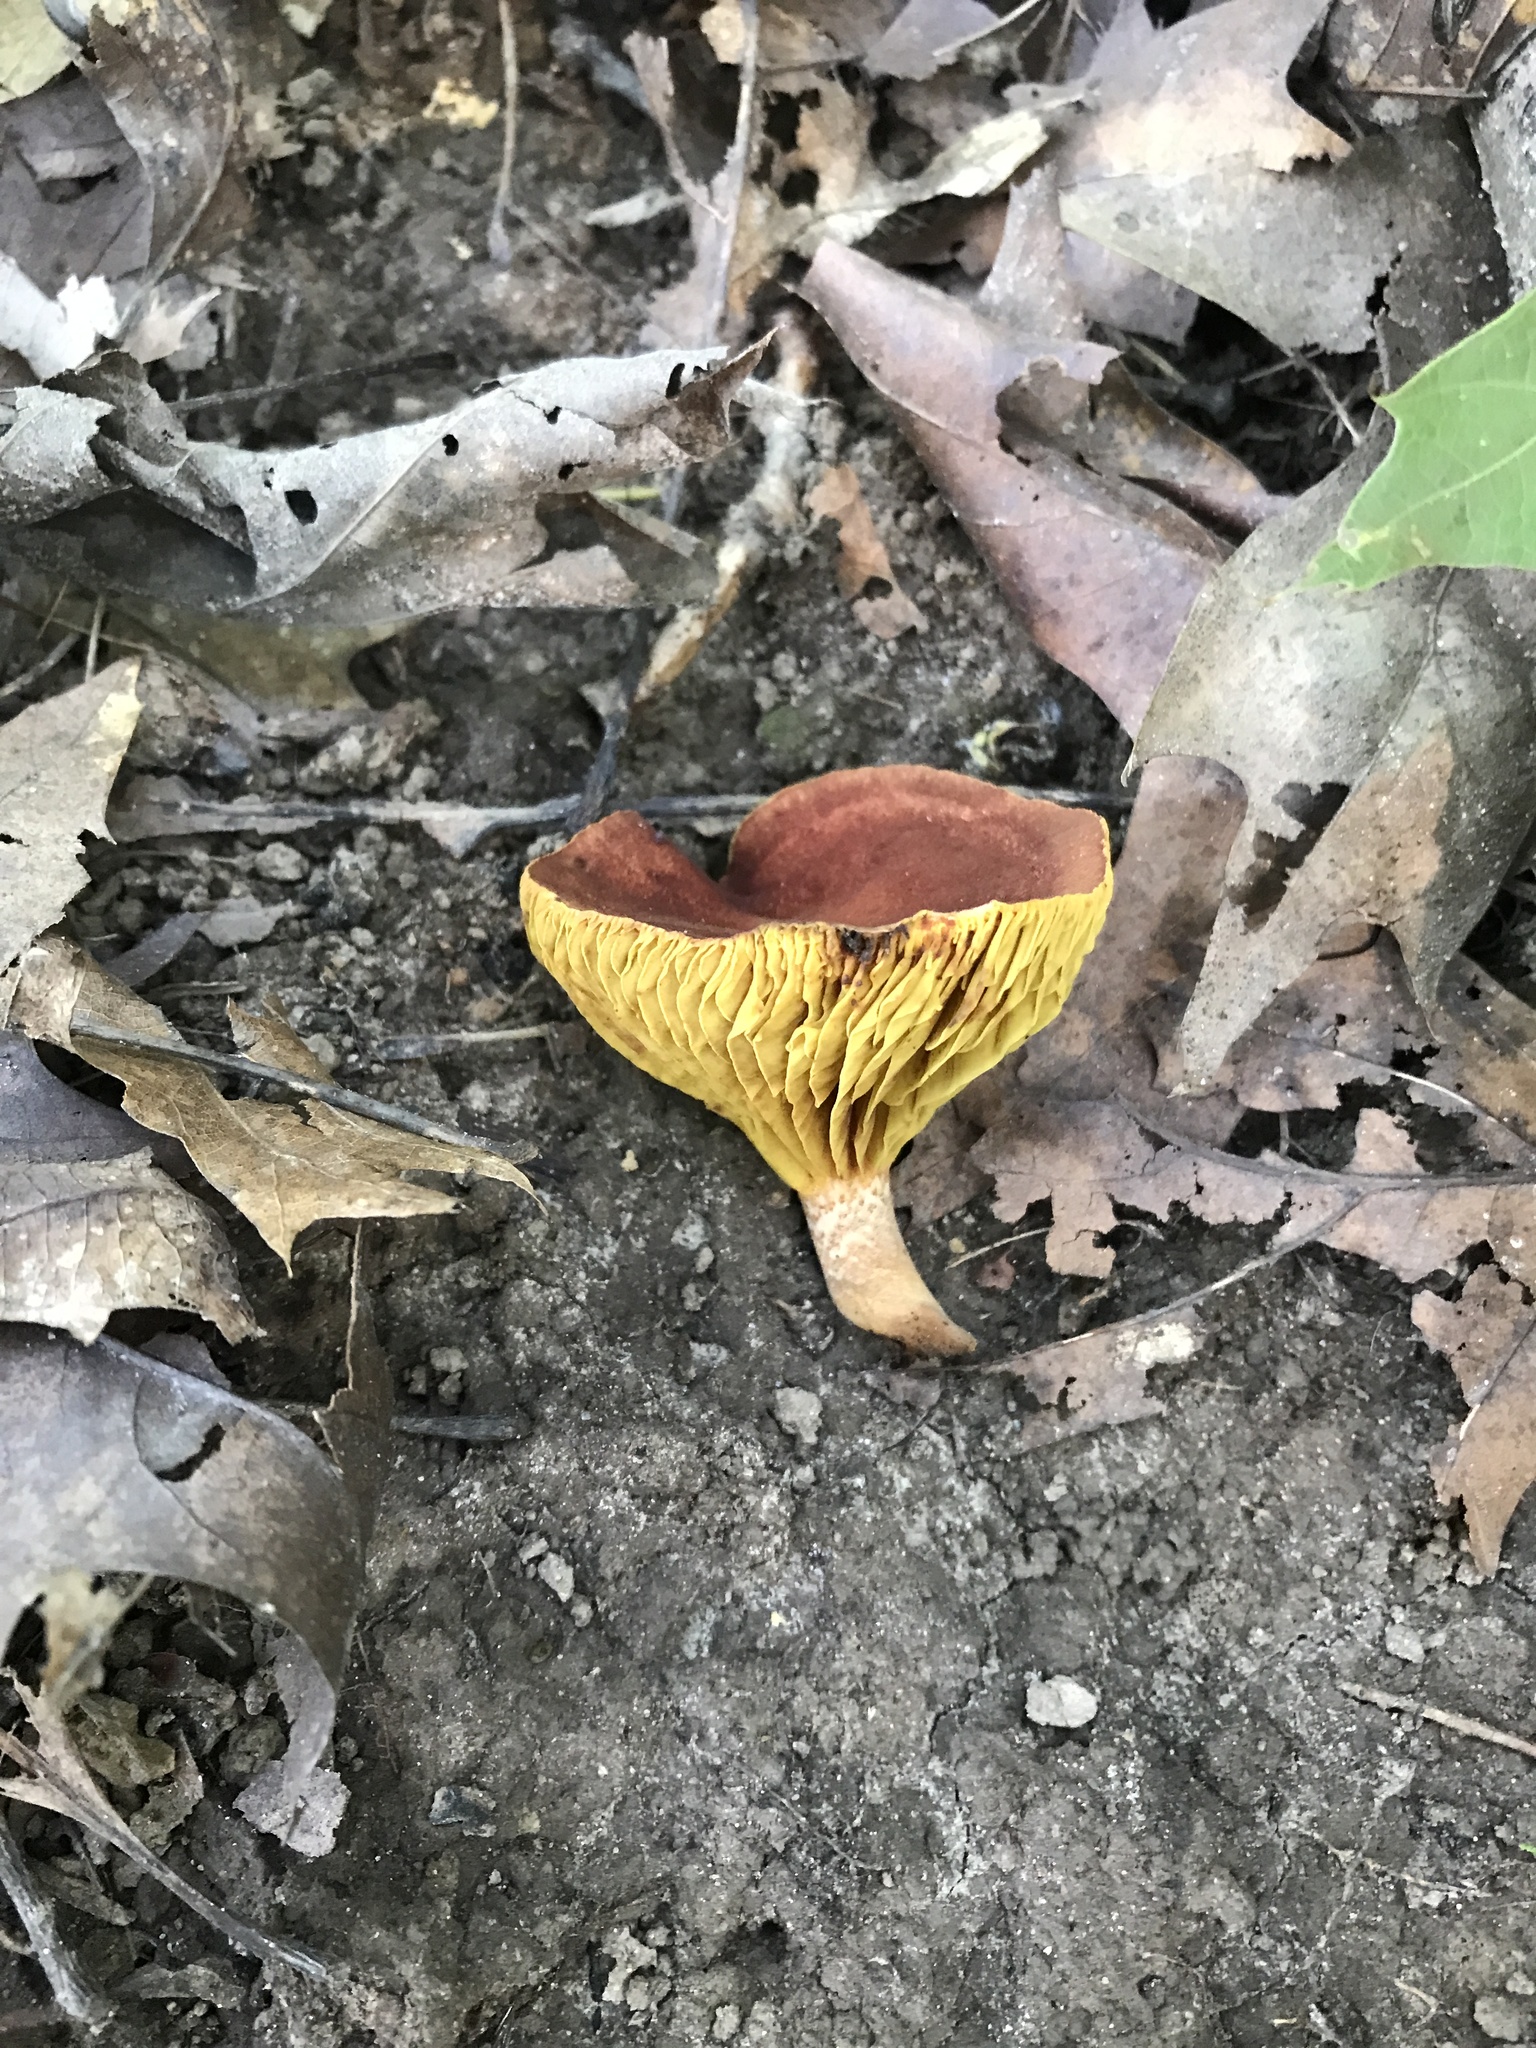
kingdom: Fungi
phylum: Basidiomycota
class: Agaricomycetes
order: Boletales
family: Boletaceae
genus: Phylloporus
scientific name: Phylloporus leucomycelinus
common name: Gilled bolete
